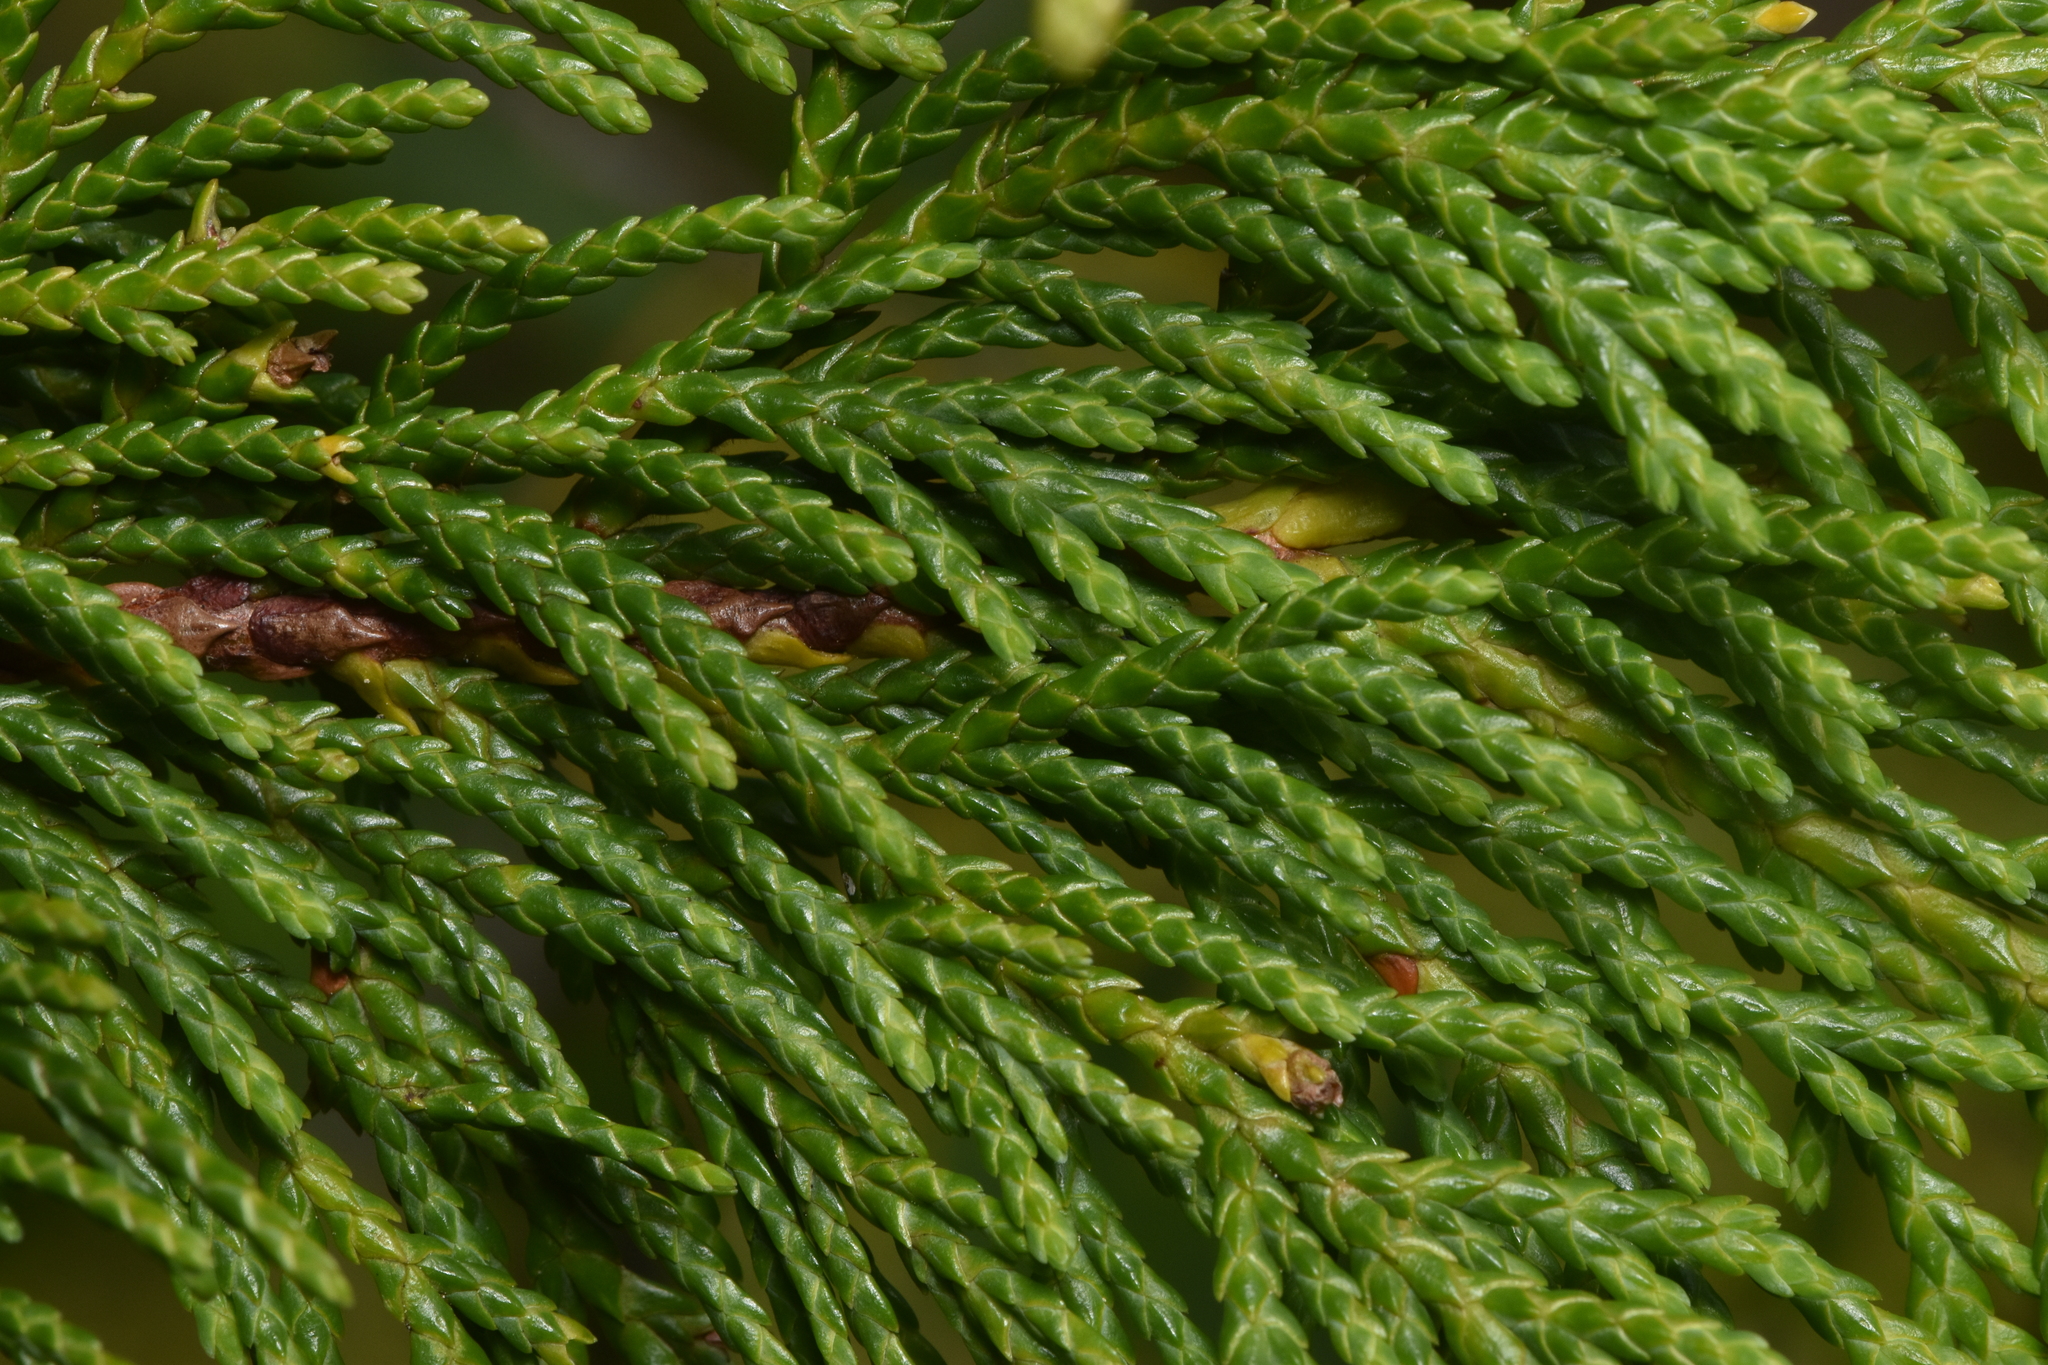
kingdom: Plantae
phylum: Tracheophyta
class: Pinopsida
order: Pinales
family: Cupressaceae
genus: Xanthocyparis
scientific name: Xanthocyparis nootkatensis
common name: Nootka cypress
